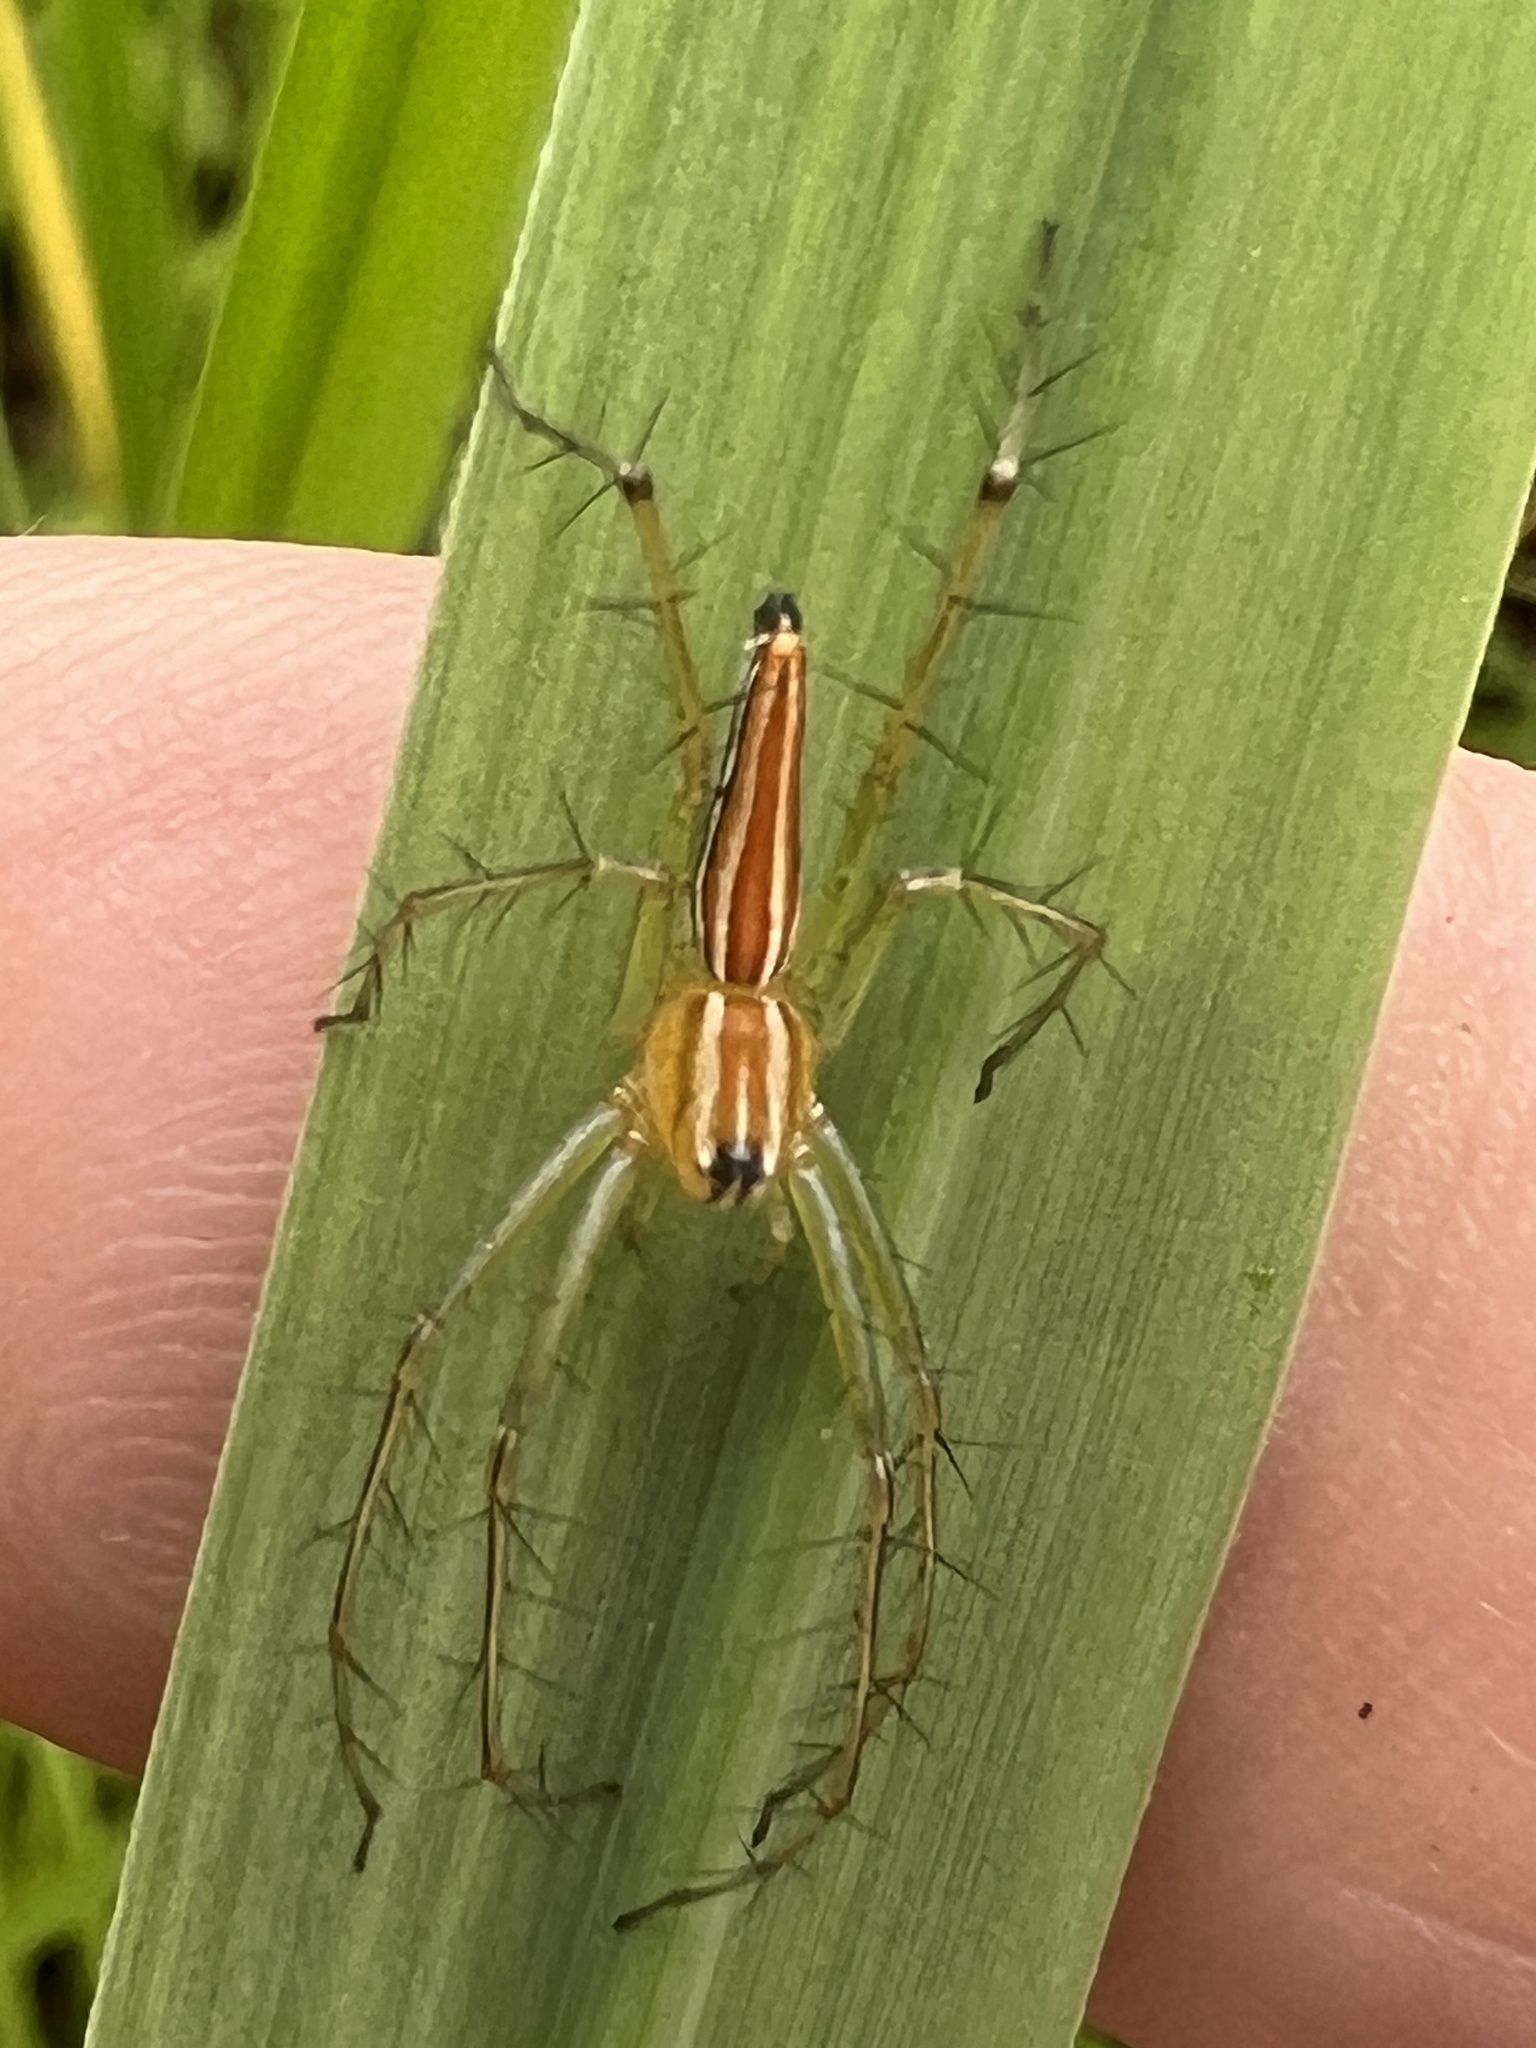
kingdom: Animalia
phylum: Arthropoda
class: Arachnida
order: Araneae
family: Oxyopidae
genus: Oxyopes
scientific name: Oxyopes macilentus
